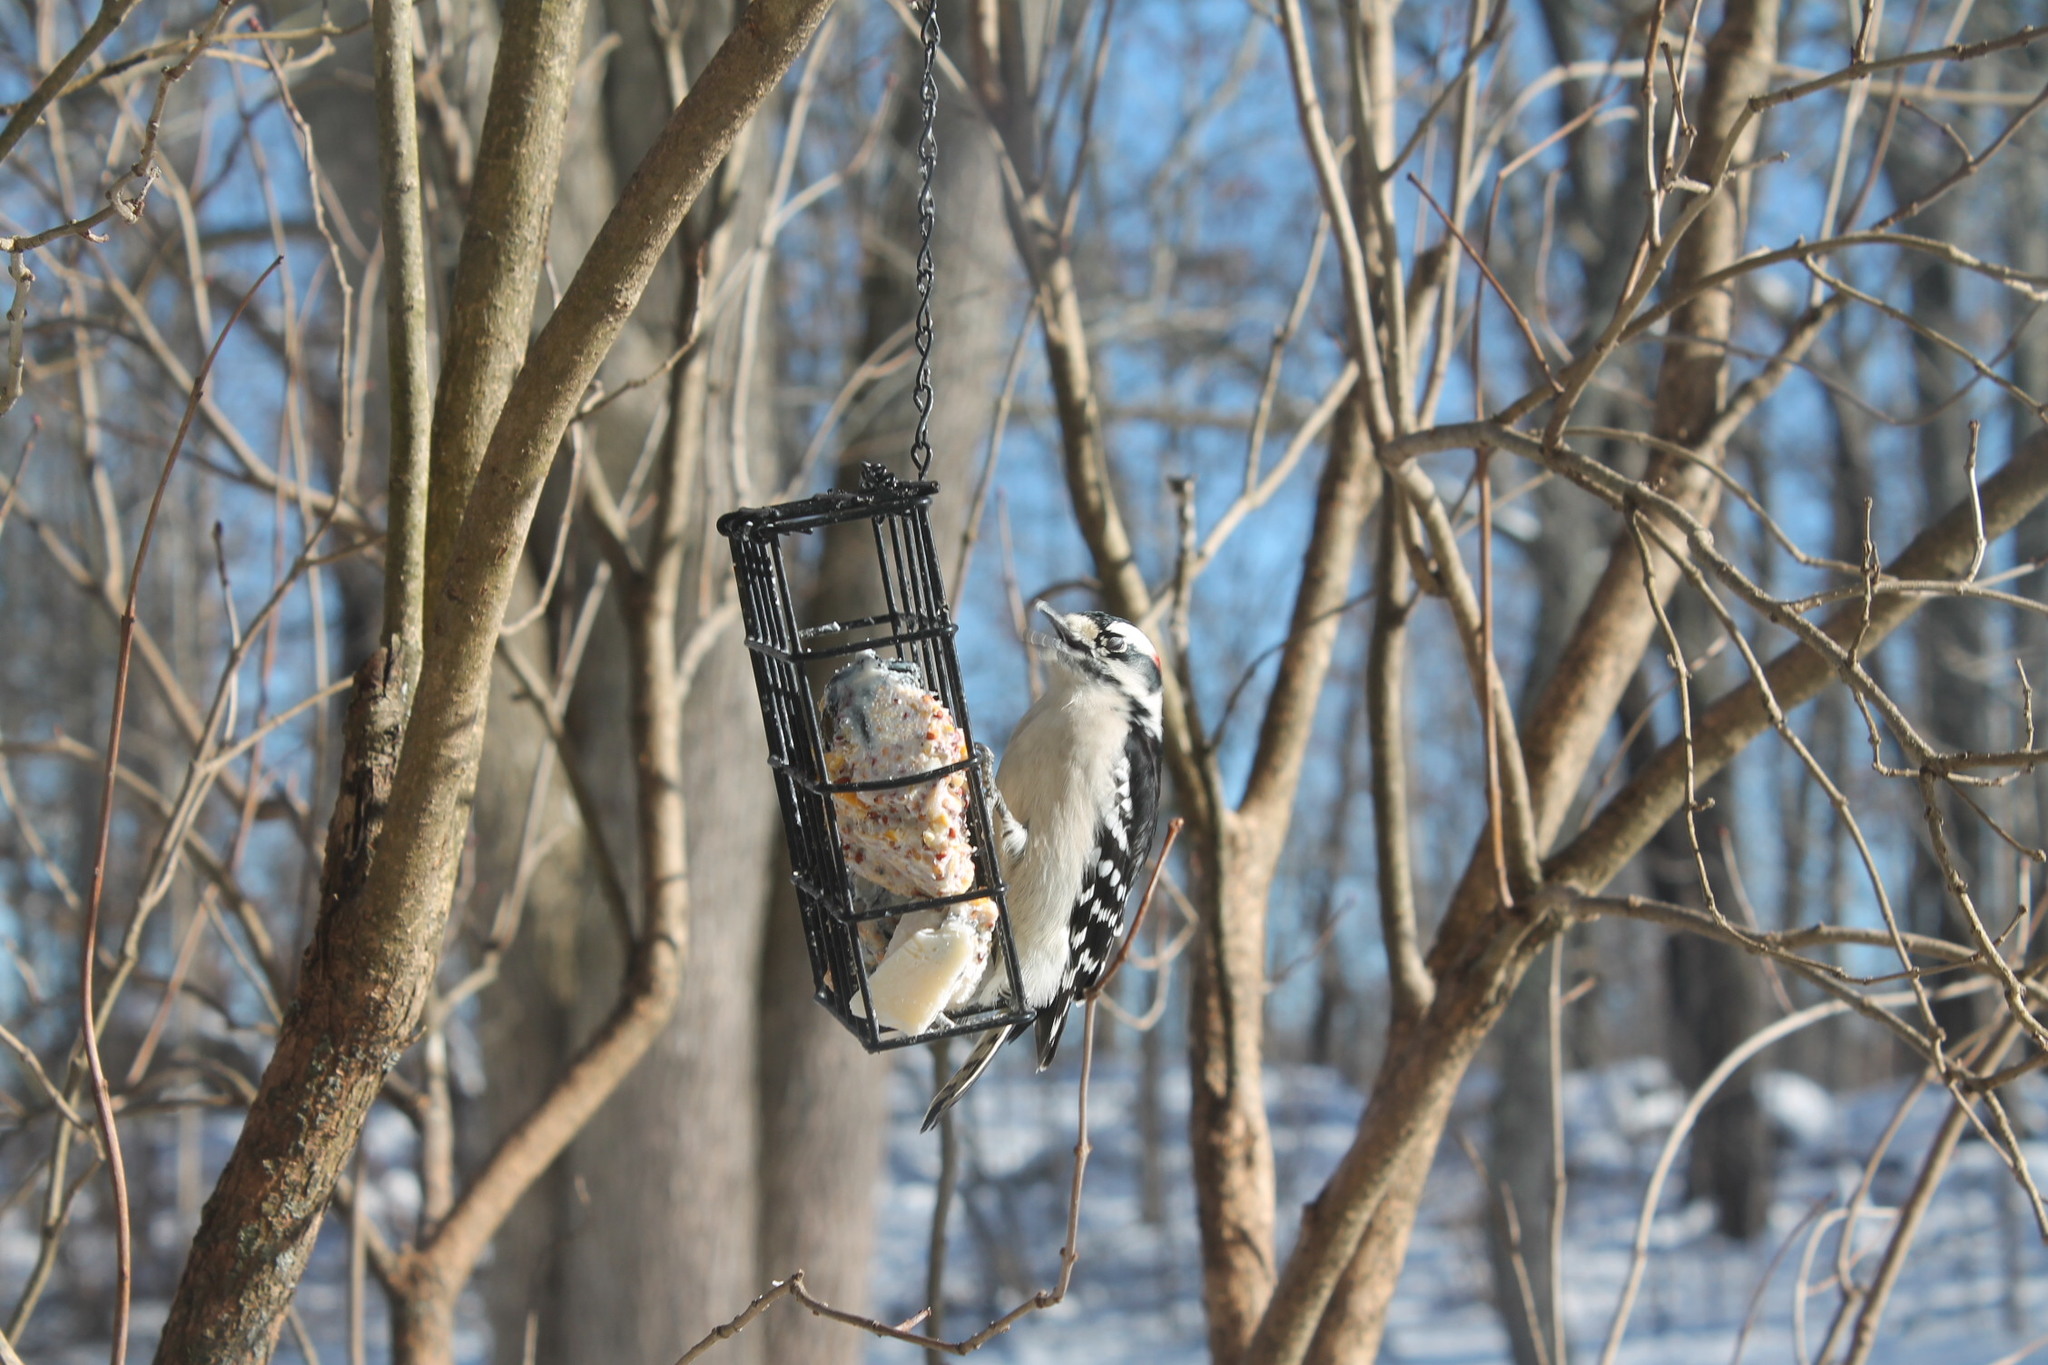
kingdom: Animalia
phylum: Chordata
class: Aves
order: Piciformes
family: Picidae
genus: Dryobates
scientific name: Dryobates pubescens
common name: Downy woodpecker
